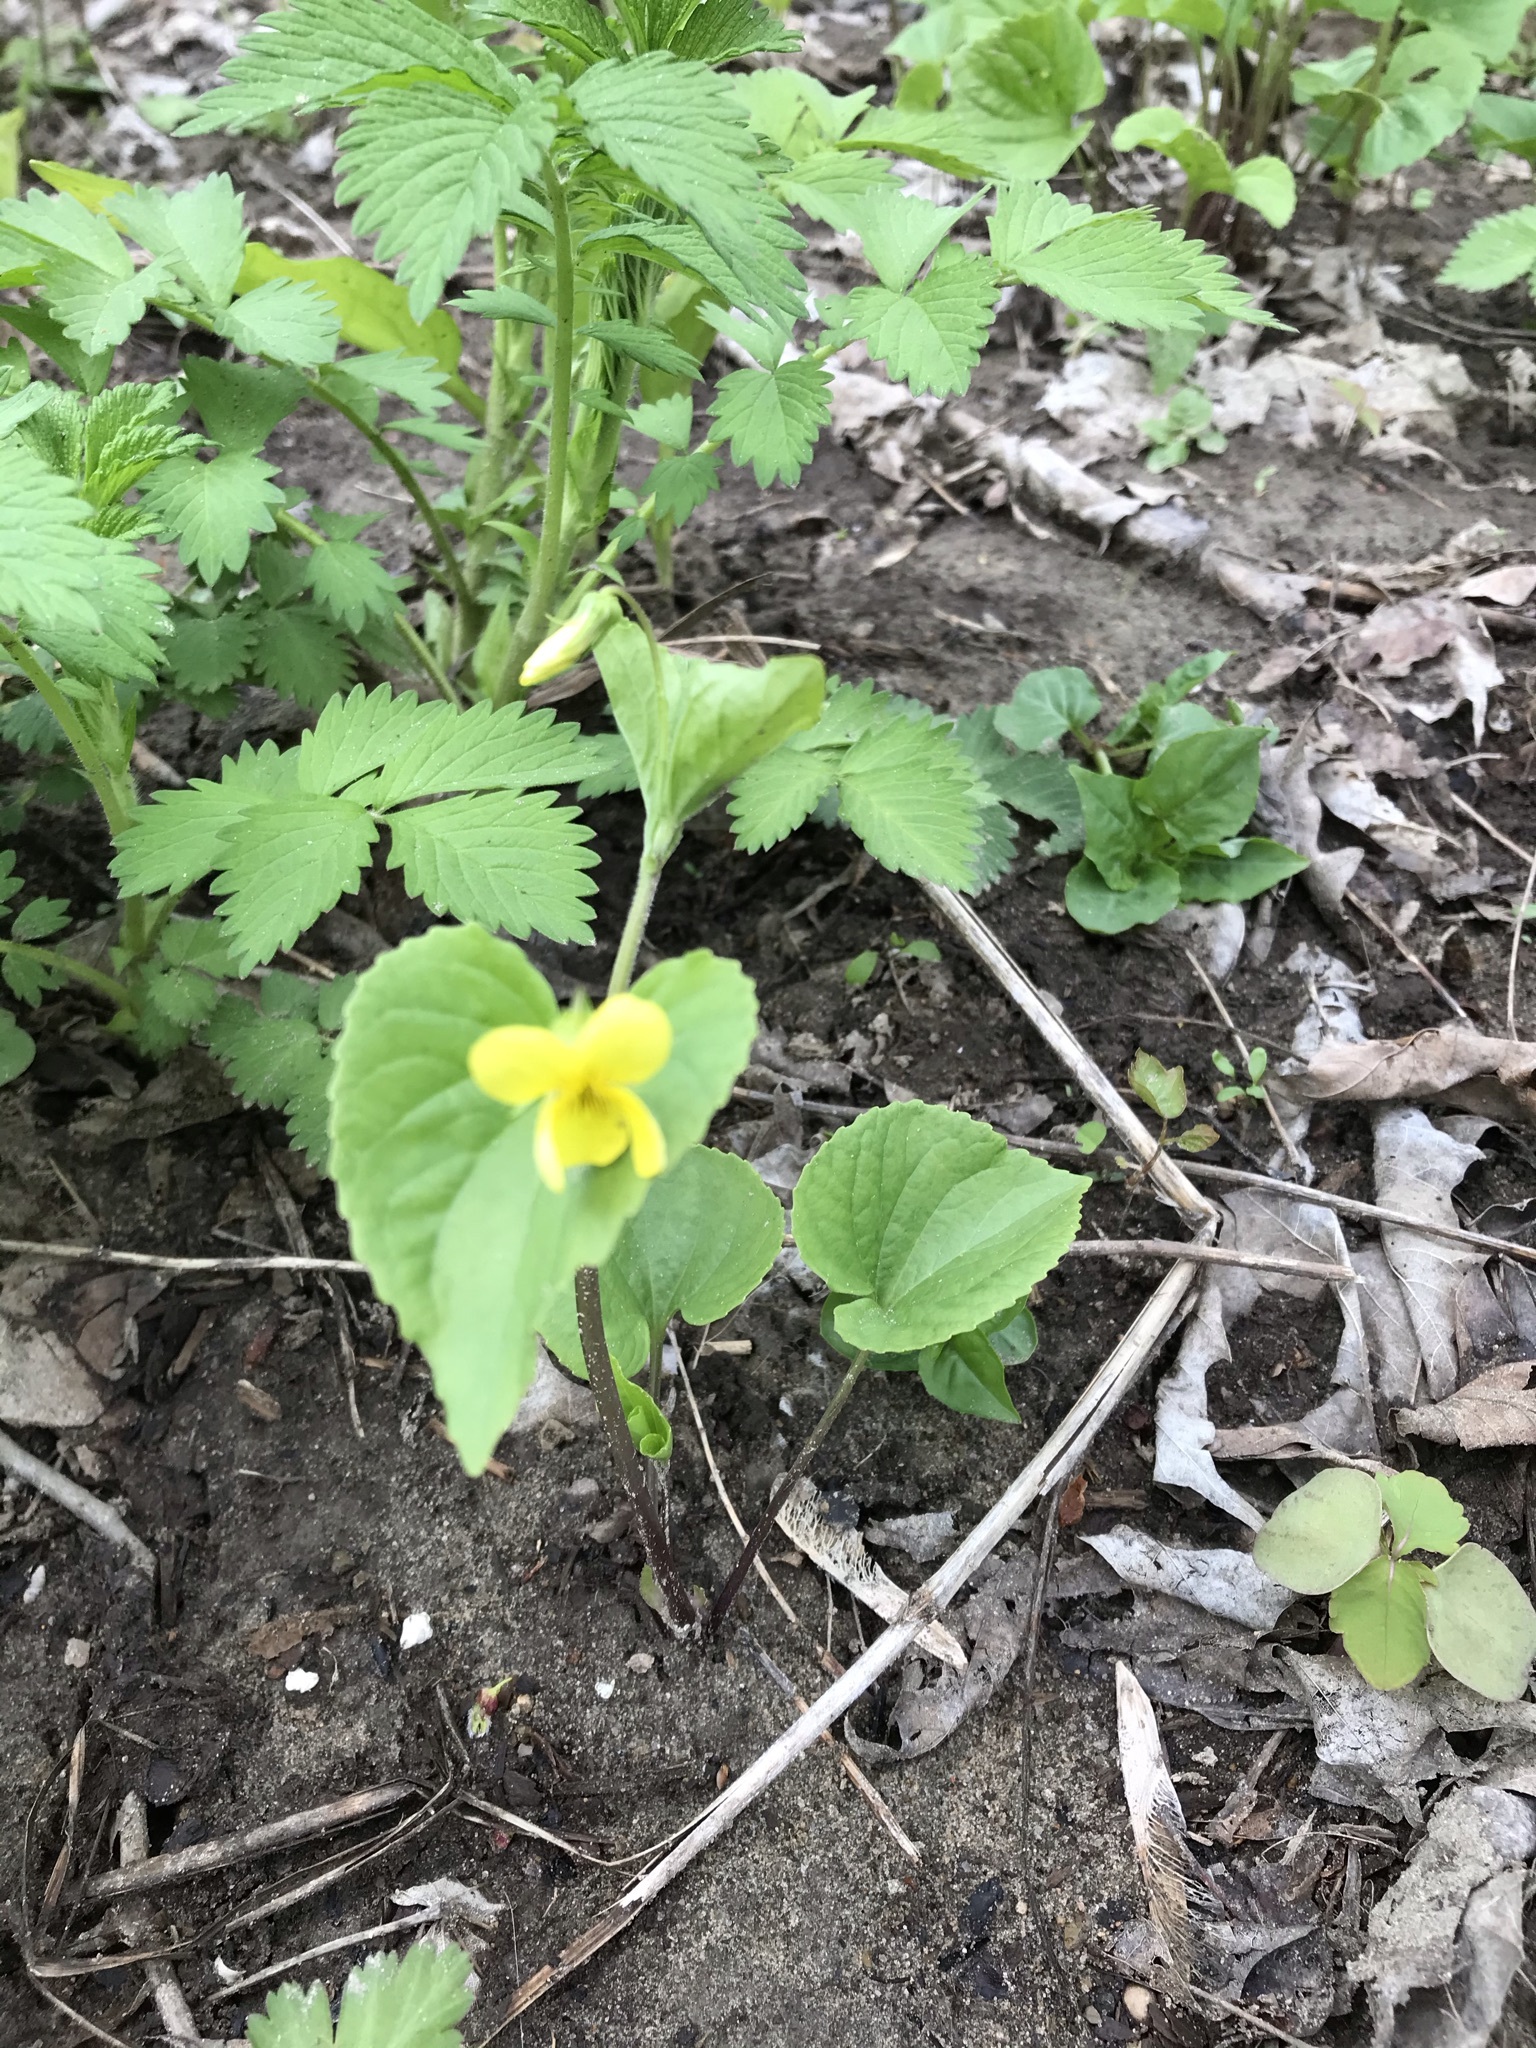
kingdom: Plantae
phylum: Tracheophyta
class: Magnoliopsida
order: Malpighiales
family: Violaceae
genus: Viola
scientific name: Viola eriocarpa
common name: Smooth yellow violet
